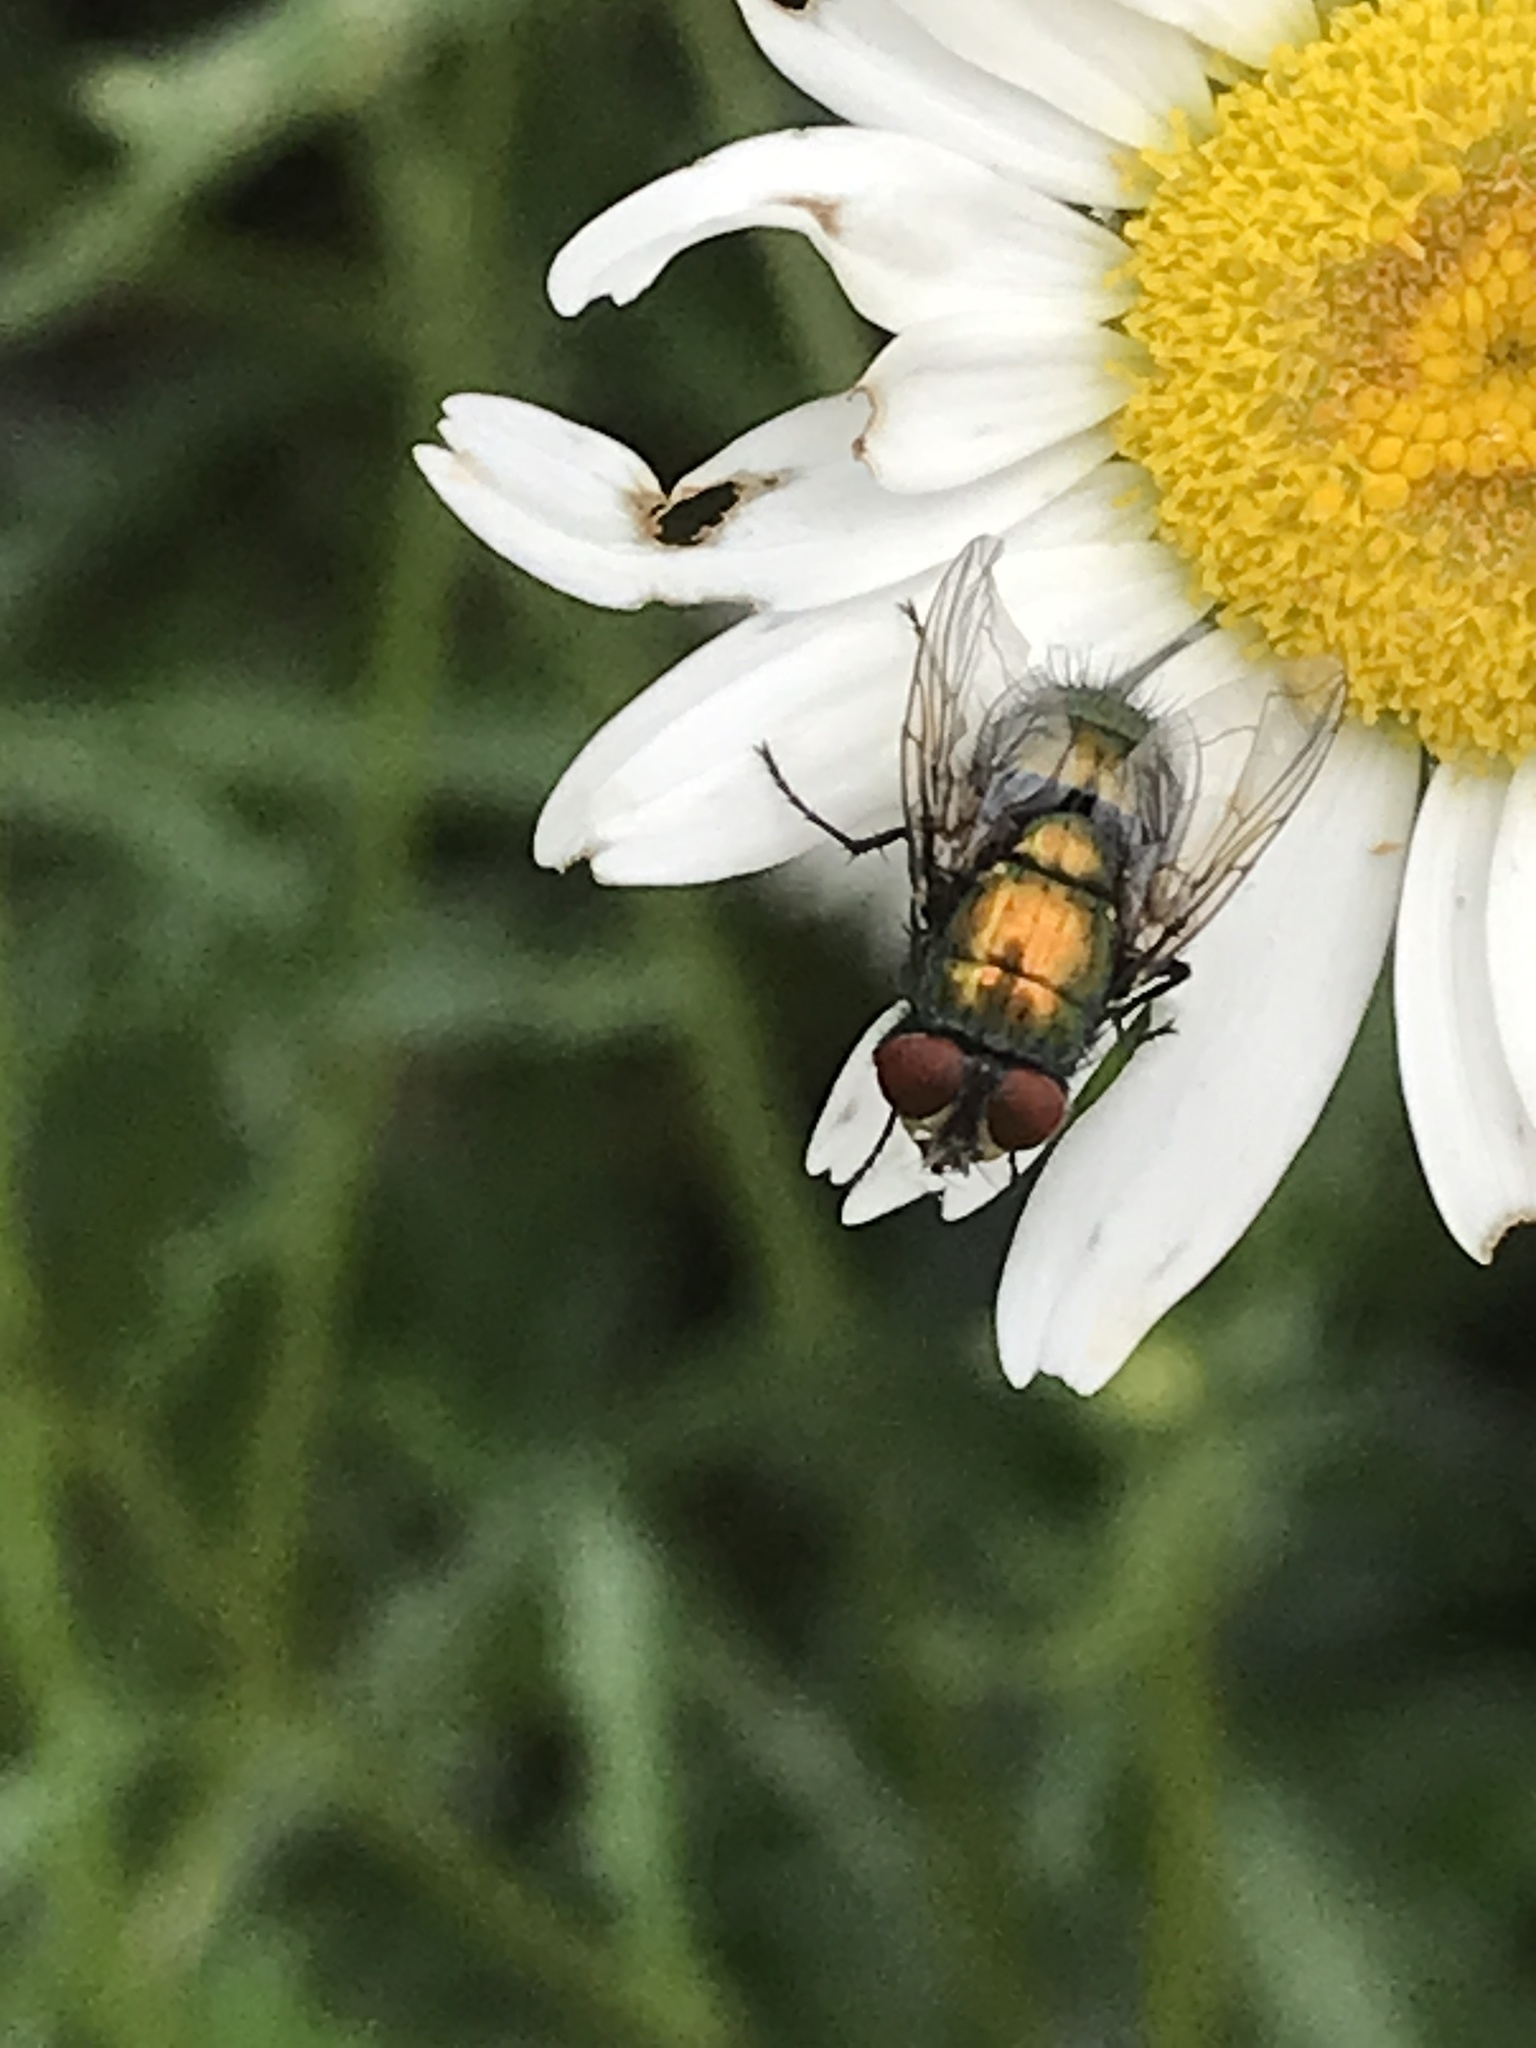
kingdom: Animalia
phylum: Arthropoda
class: Insecta
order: Diptera
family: Calliphoridae
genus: Lucilia
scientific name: Lucilia sericata
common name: Blow fly
